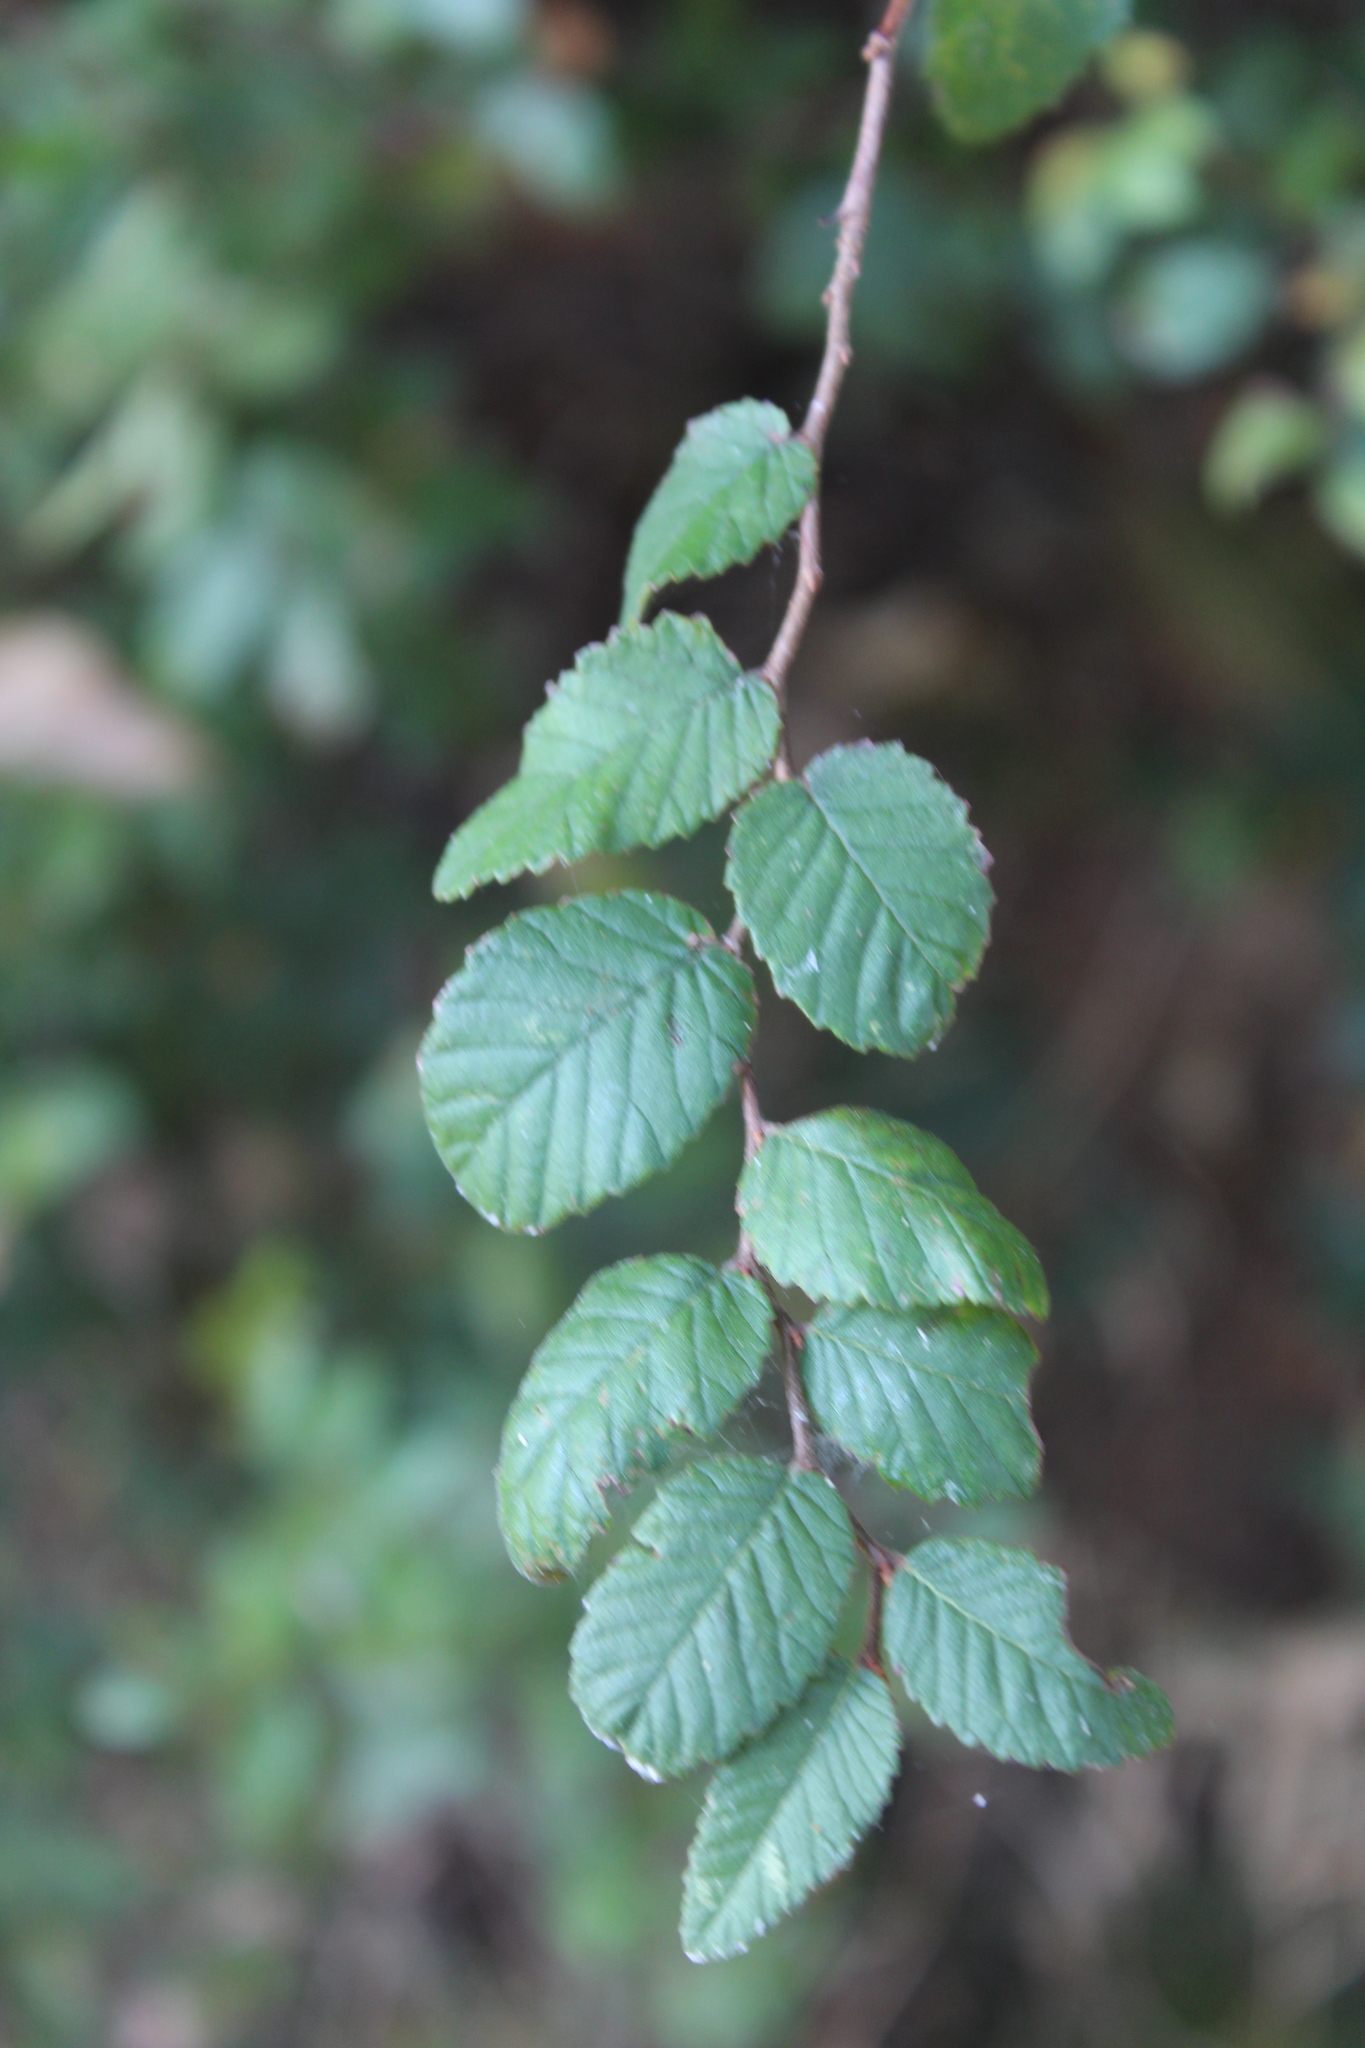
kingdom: Plantae
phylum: Tracheophyta
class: Magnoliopsida
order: Rosales
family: Ulmaceae
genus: Ulmus
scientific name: Ulmus crassifolia
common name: Basket elm
